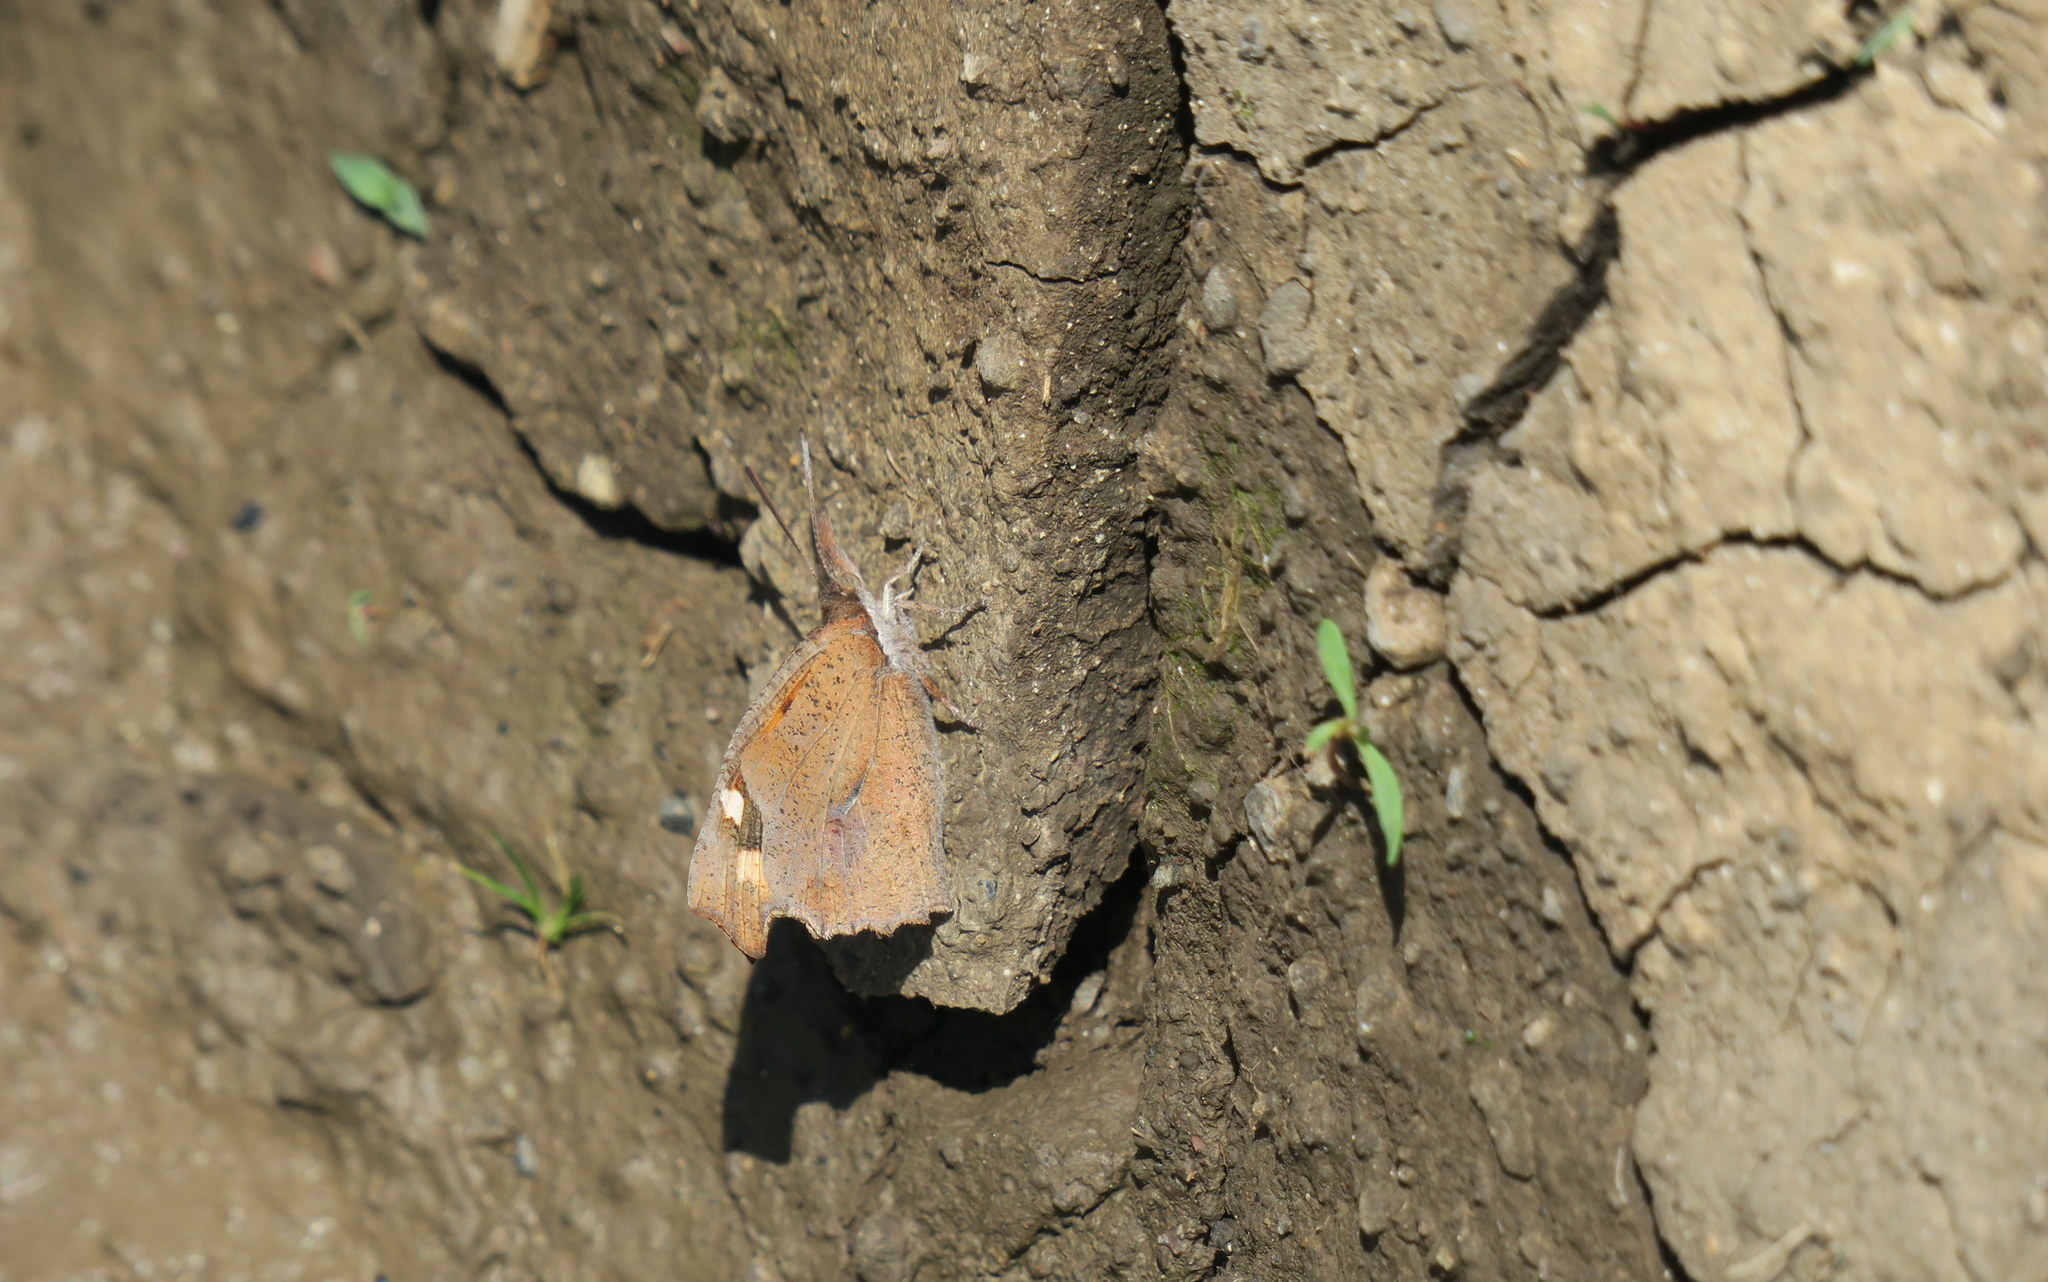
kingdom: Animalia
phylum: Arthropoda
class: Insecta
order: Lepidoptera
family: Nymphalidae
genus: Libythea
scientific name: Libythea celtis
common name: Nettle-tree butterfly
